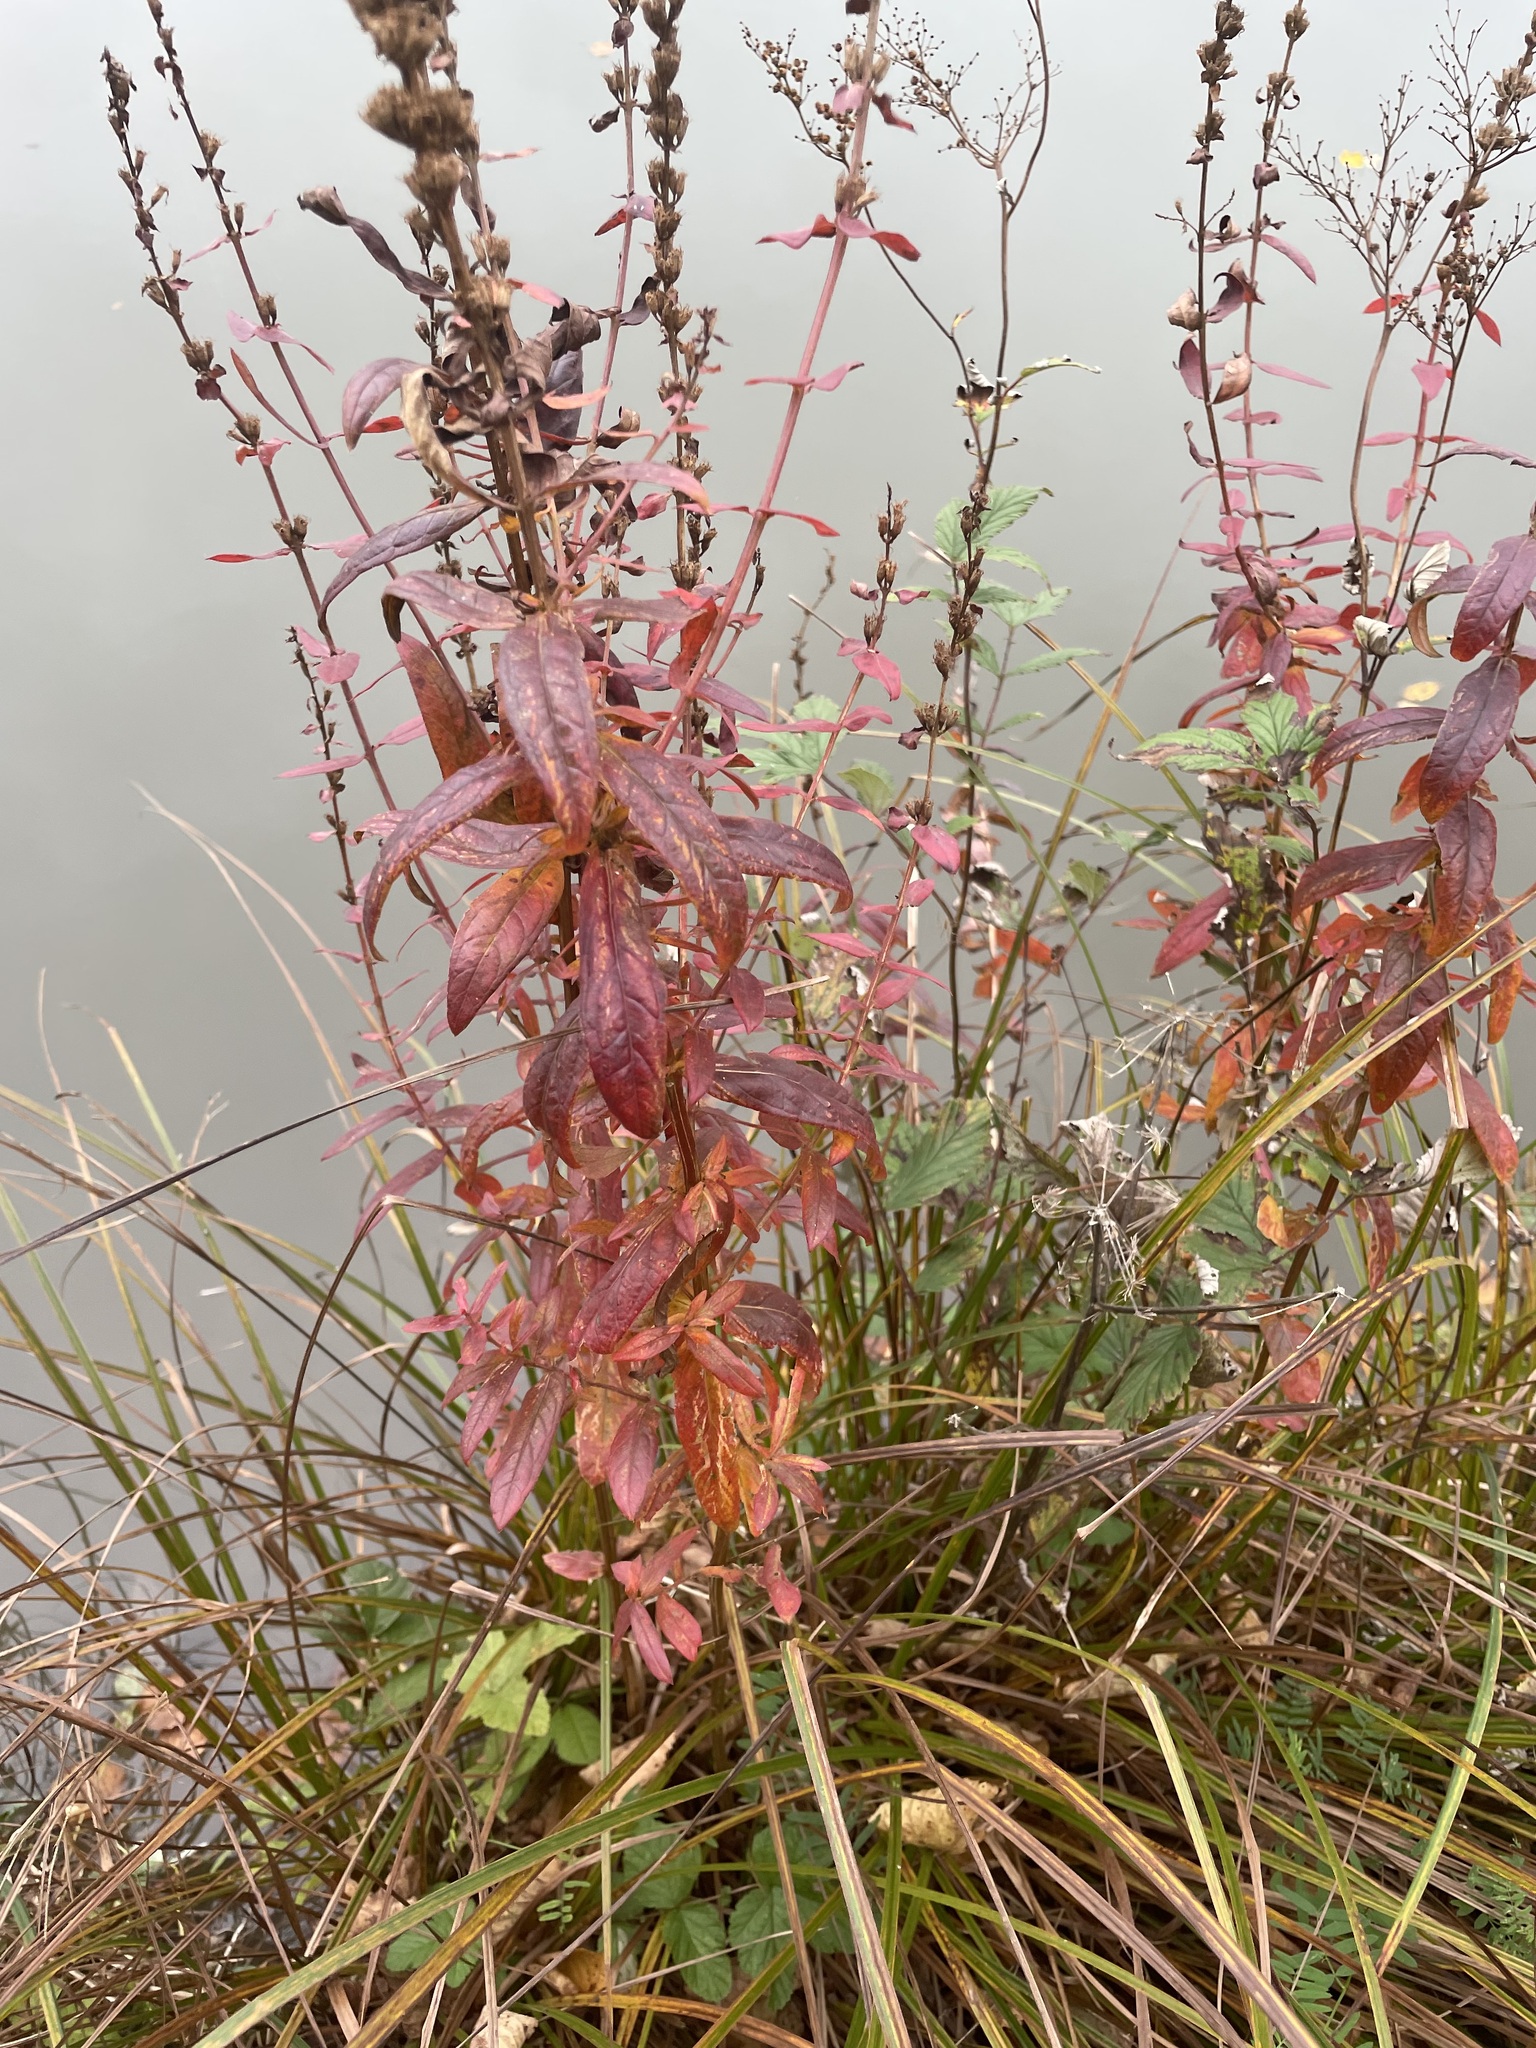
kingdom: Plantae
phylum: Tracheophyta
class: Magnoliopsida
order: Myrtales
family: Lythraceae
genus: Lythrum
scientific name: Lythrum salicaria
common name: Purple loosestrife
